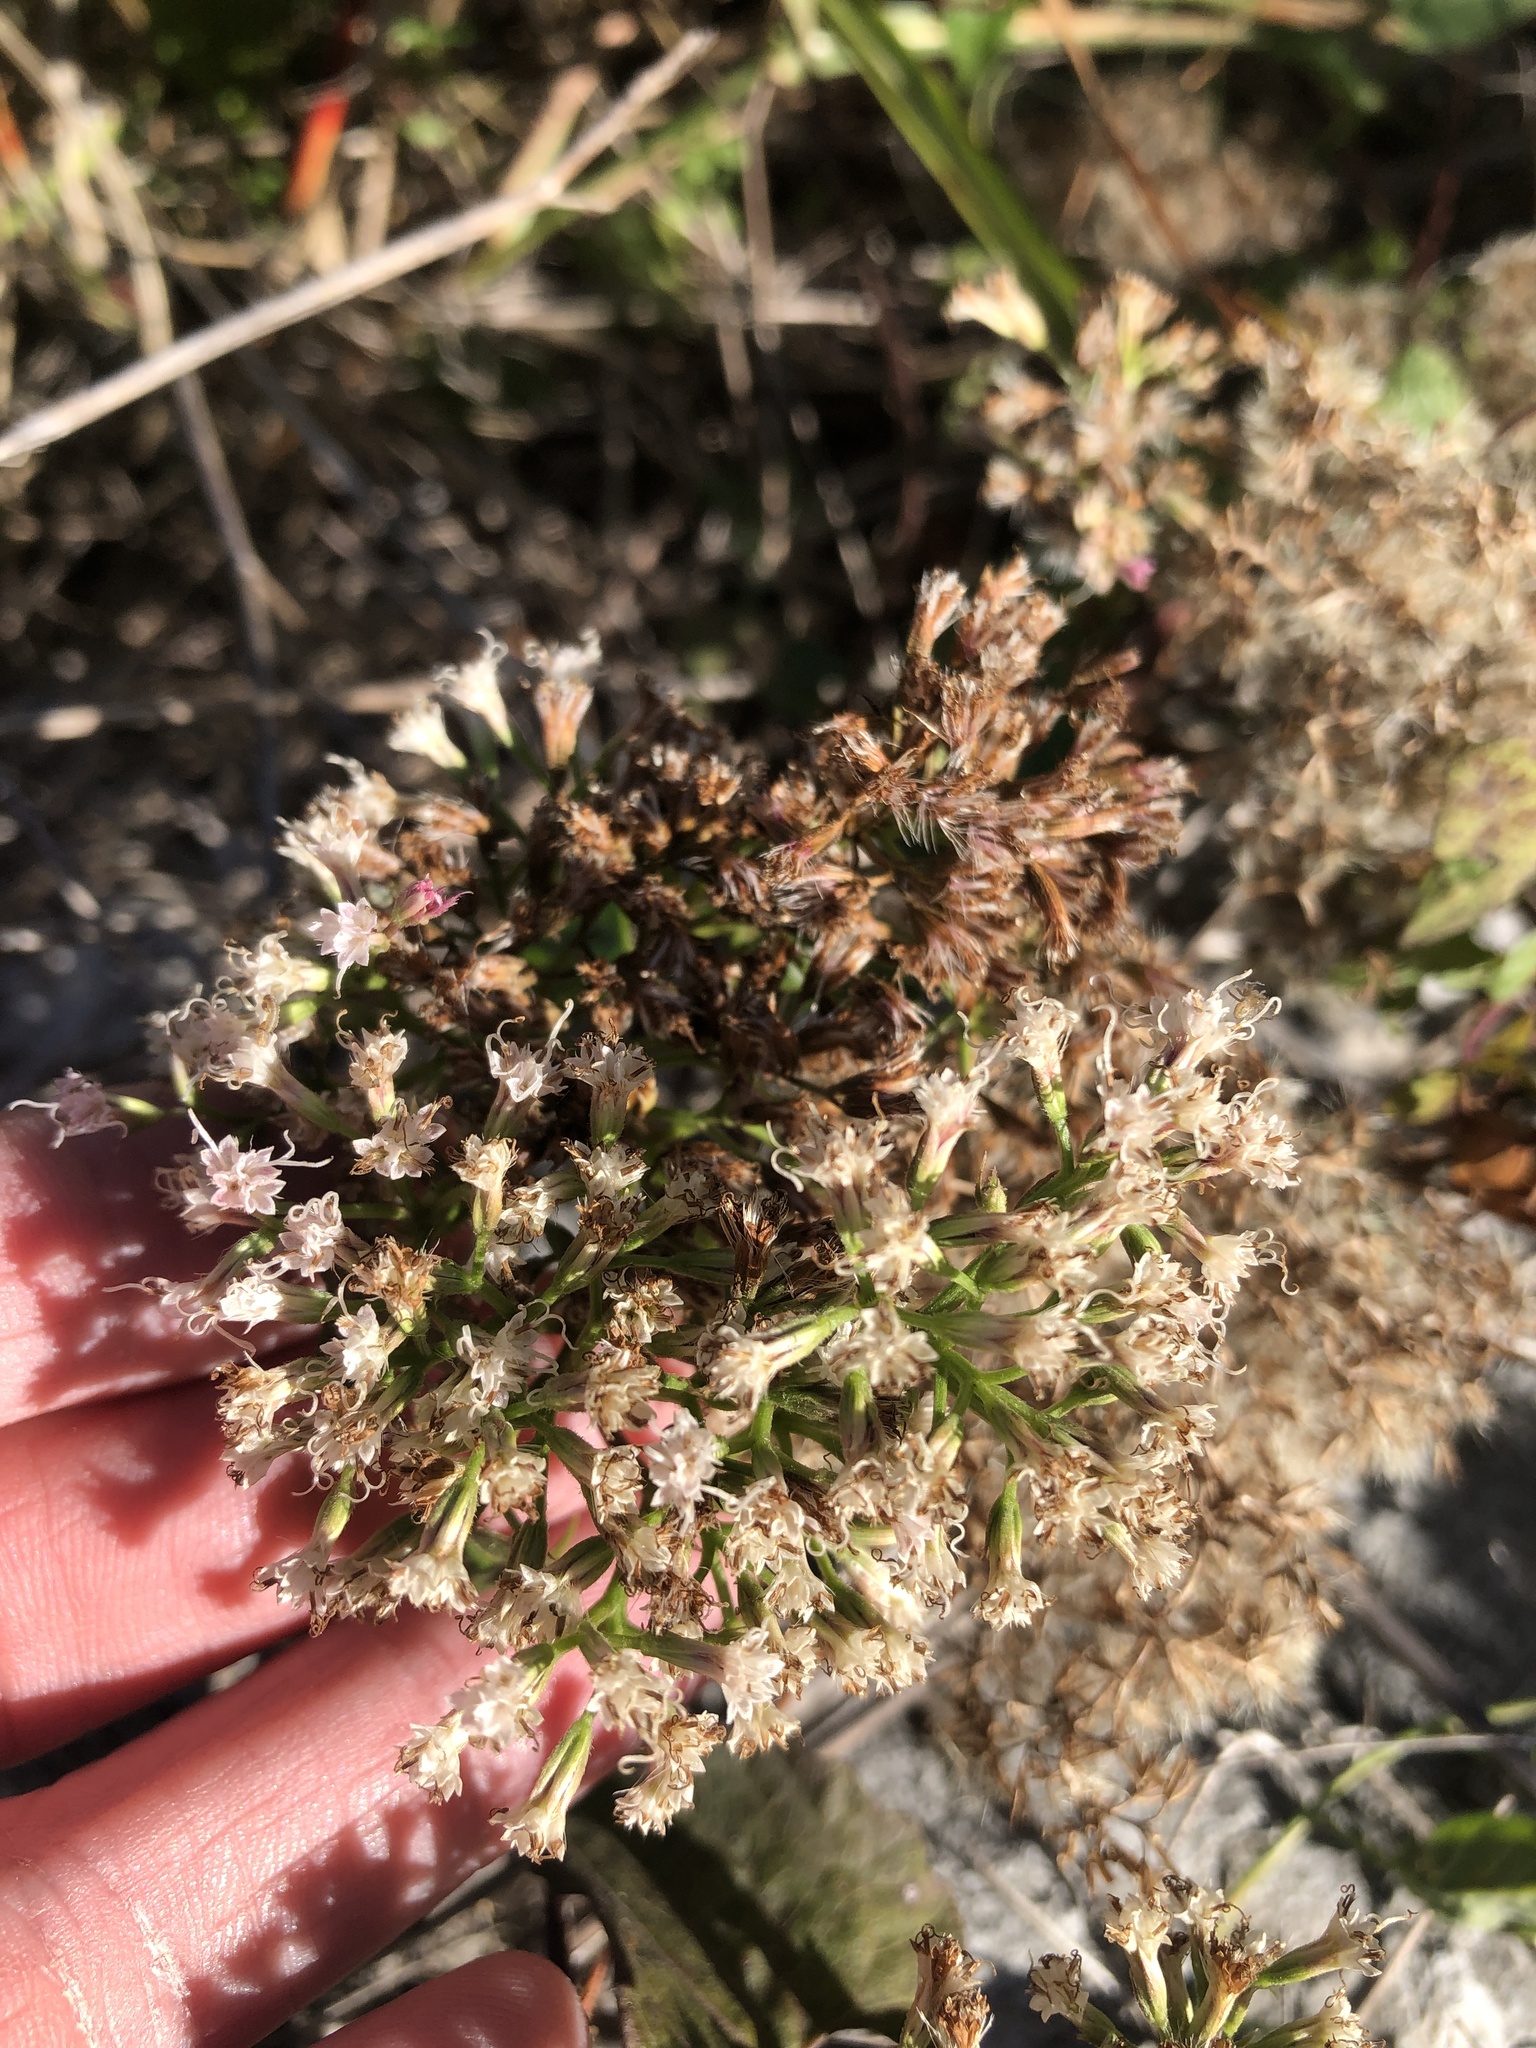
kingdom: Plantae
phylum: Tracheophyta
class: Magnoliopsida
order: Asterales
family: Asteraceae
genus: Mikania
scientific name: Mikania scandens
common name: Climbing hempvine
